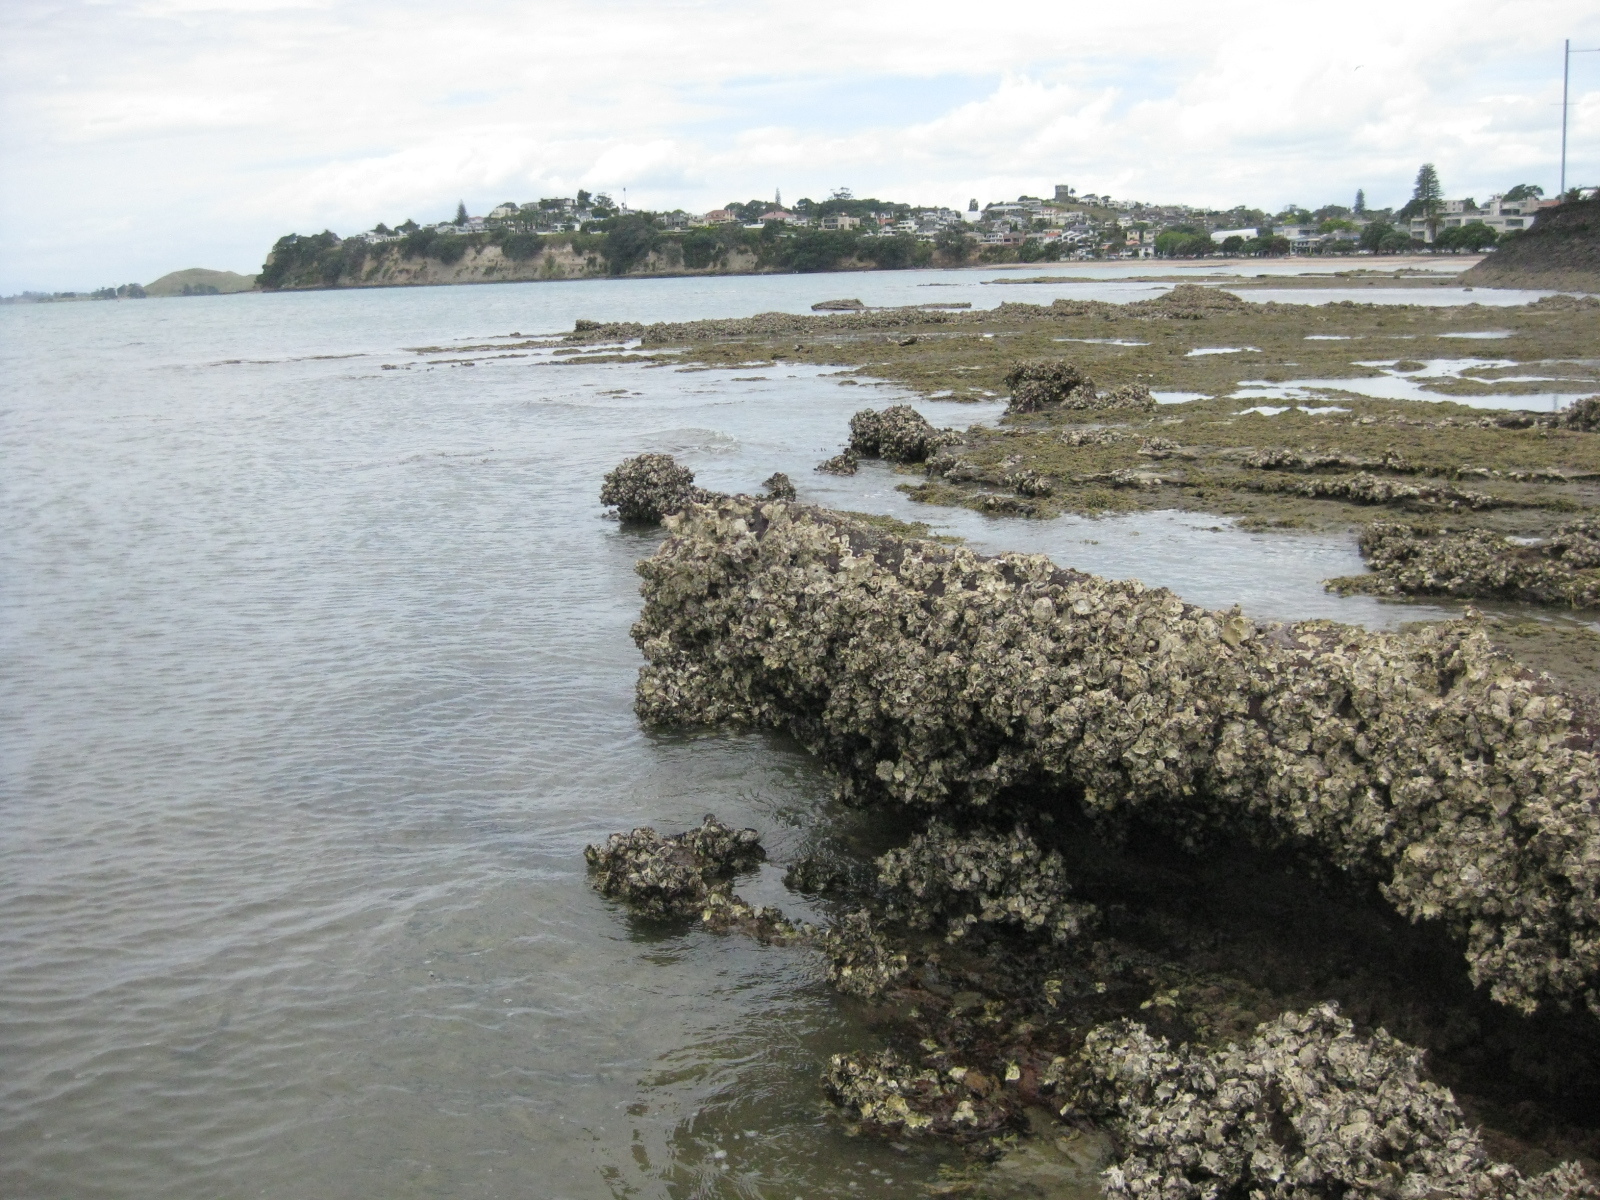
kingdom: Animalia
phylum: Mollusca
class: Bivalvia
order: Ostreida
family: Ostreidae
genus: Saccostrea
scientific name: Saccostrea glomerata
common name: Sydney cupped oyster
